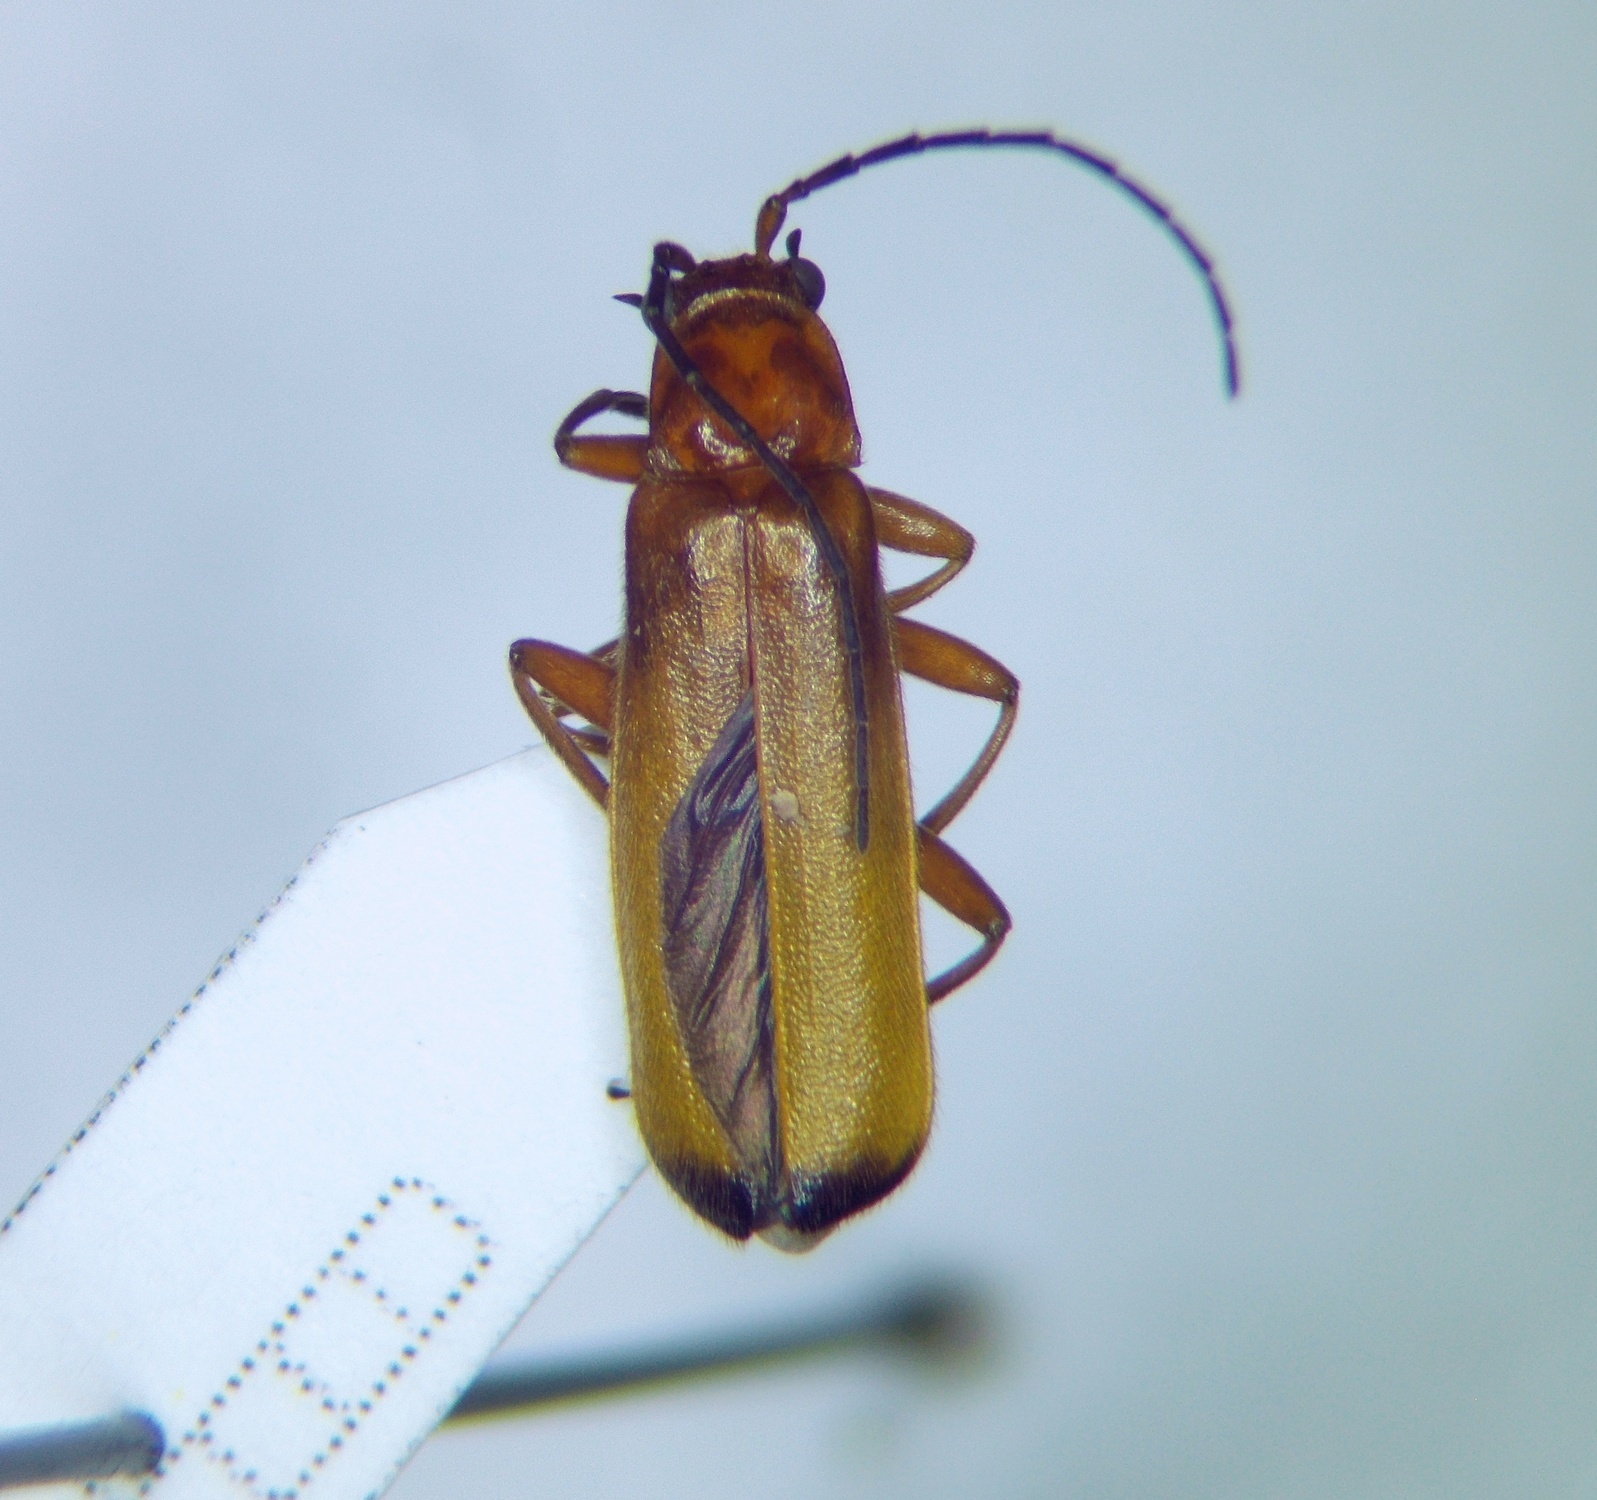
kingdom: Animalia
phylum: Arthropoda
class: Insecta
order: Coleoptera
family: Cantharidae
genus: Rhagonycha
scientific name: Rhagonycha fulva
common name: Common red soldier beetle
